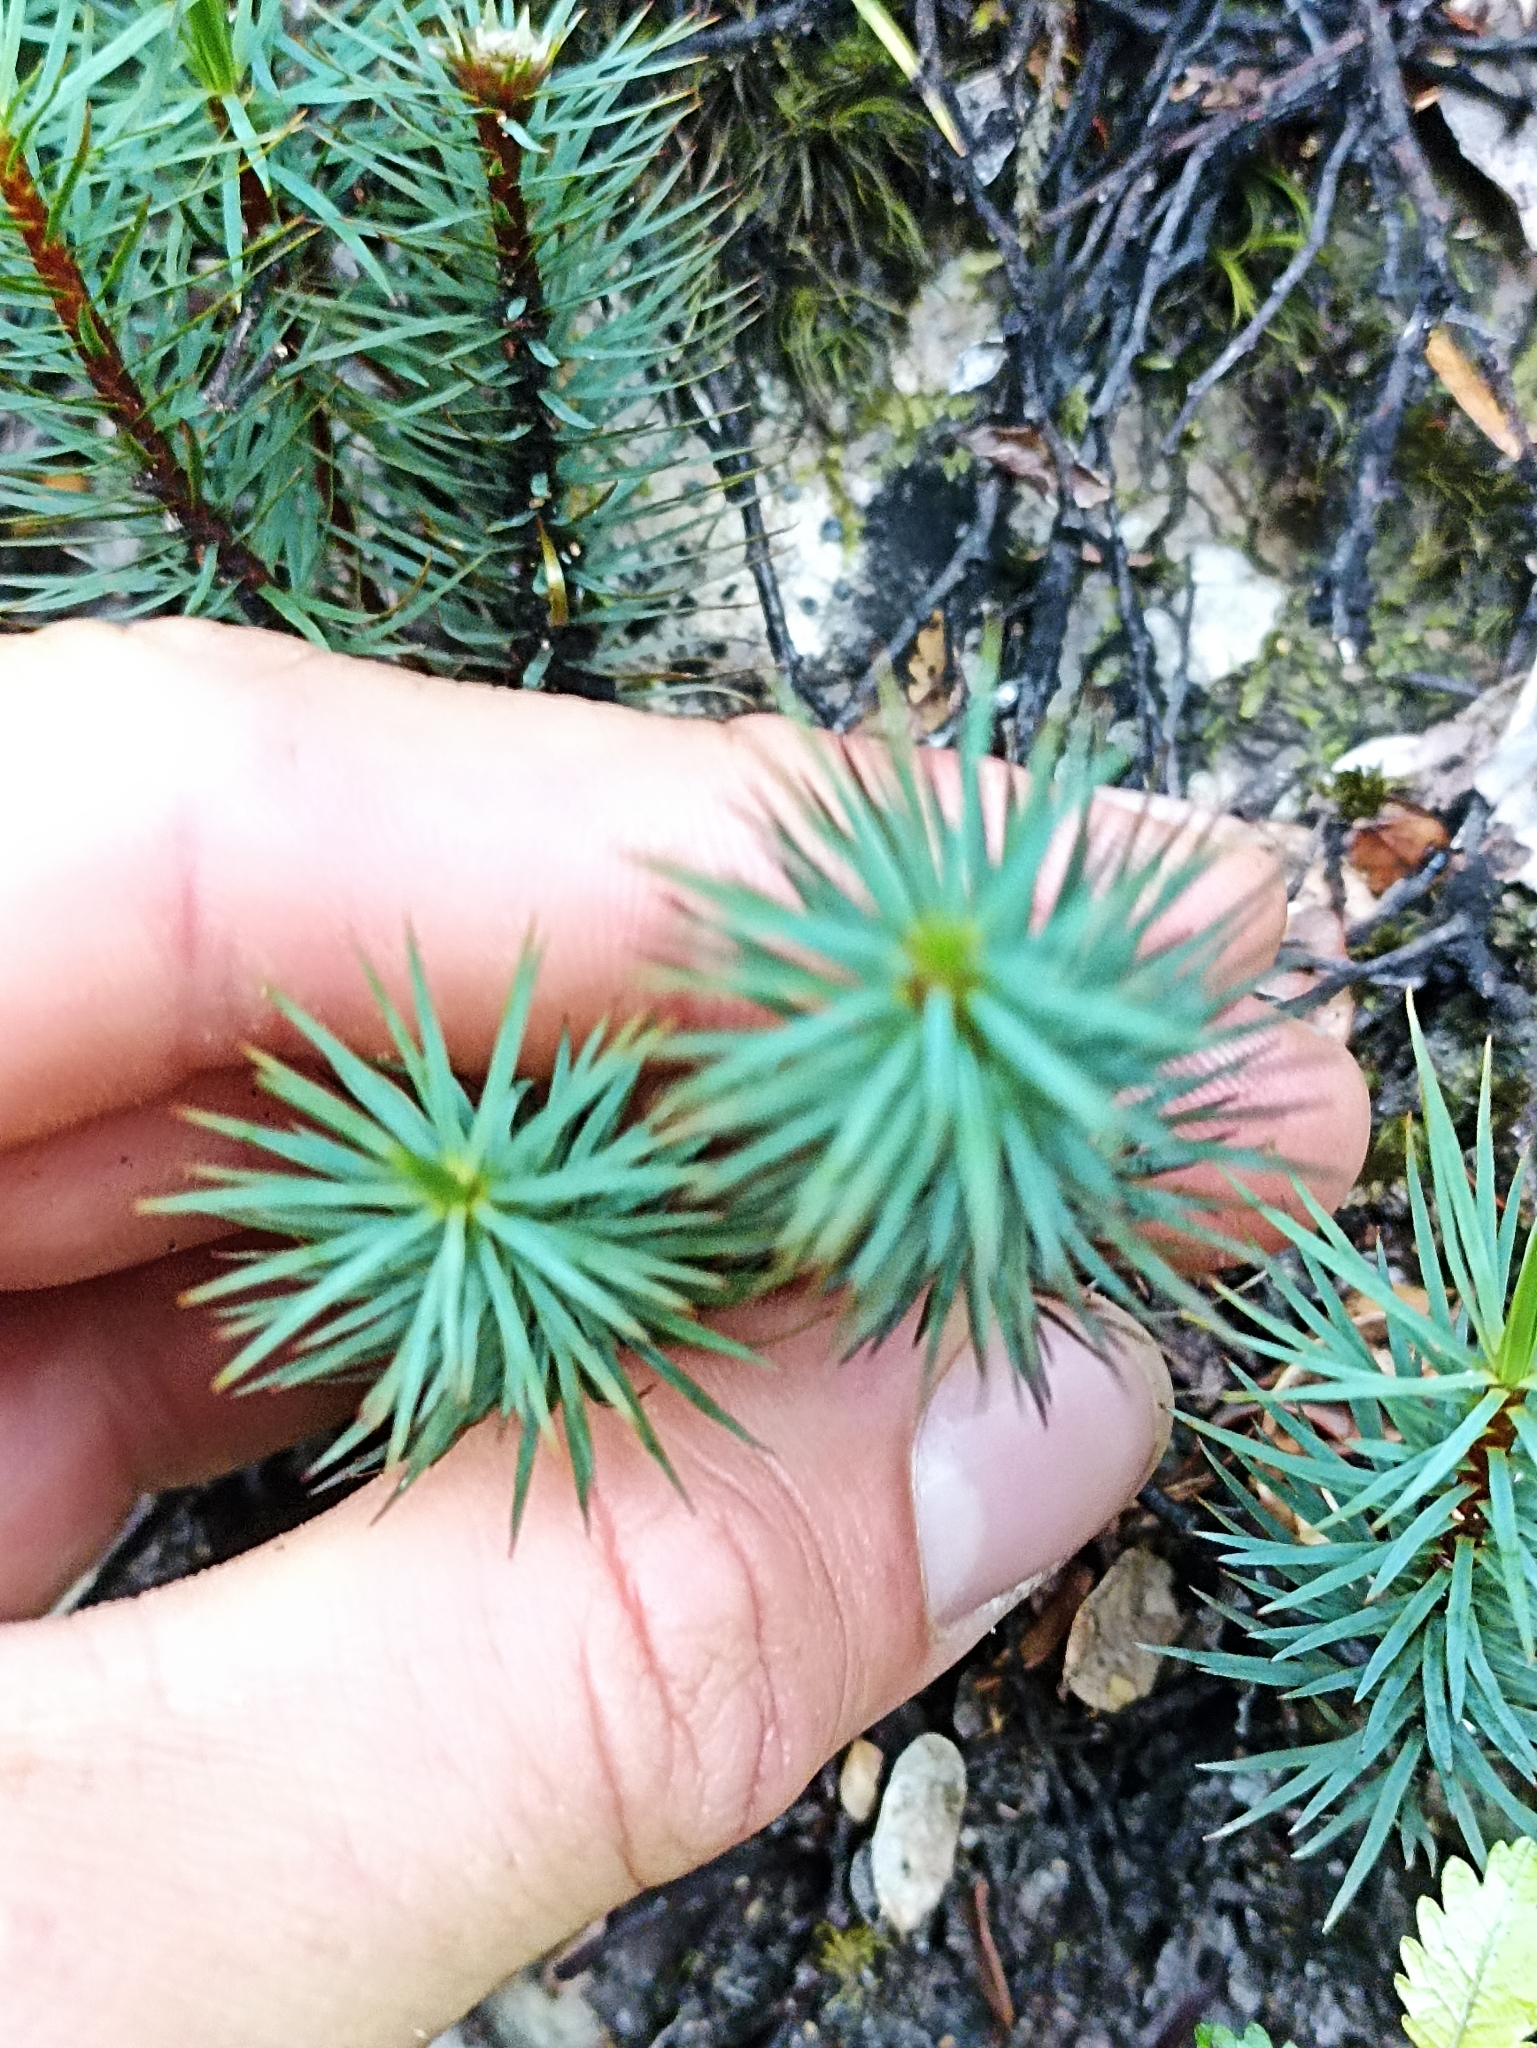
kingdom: Plantae
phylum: Bryophyta
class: Polytrichopsida
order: Polytrichales
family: Polytrichaceae
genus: Dawsonia
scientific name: Dawsonia superba
